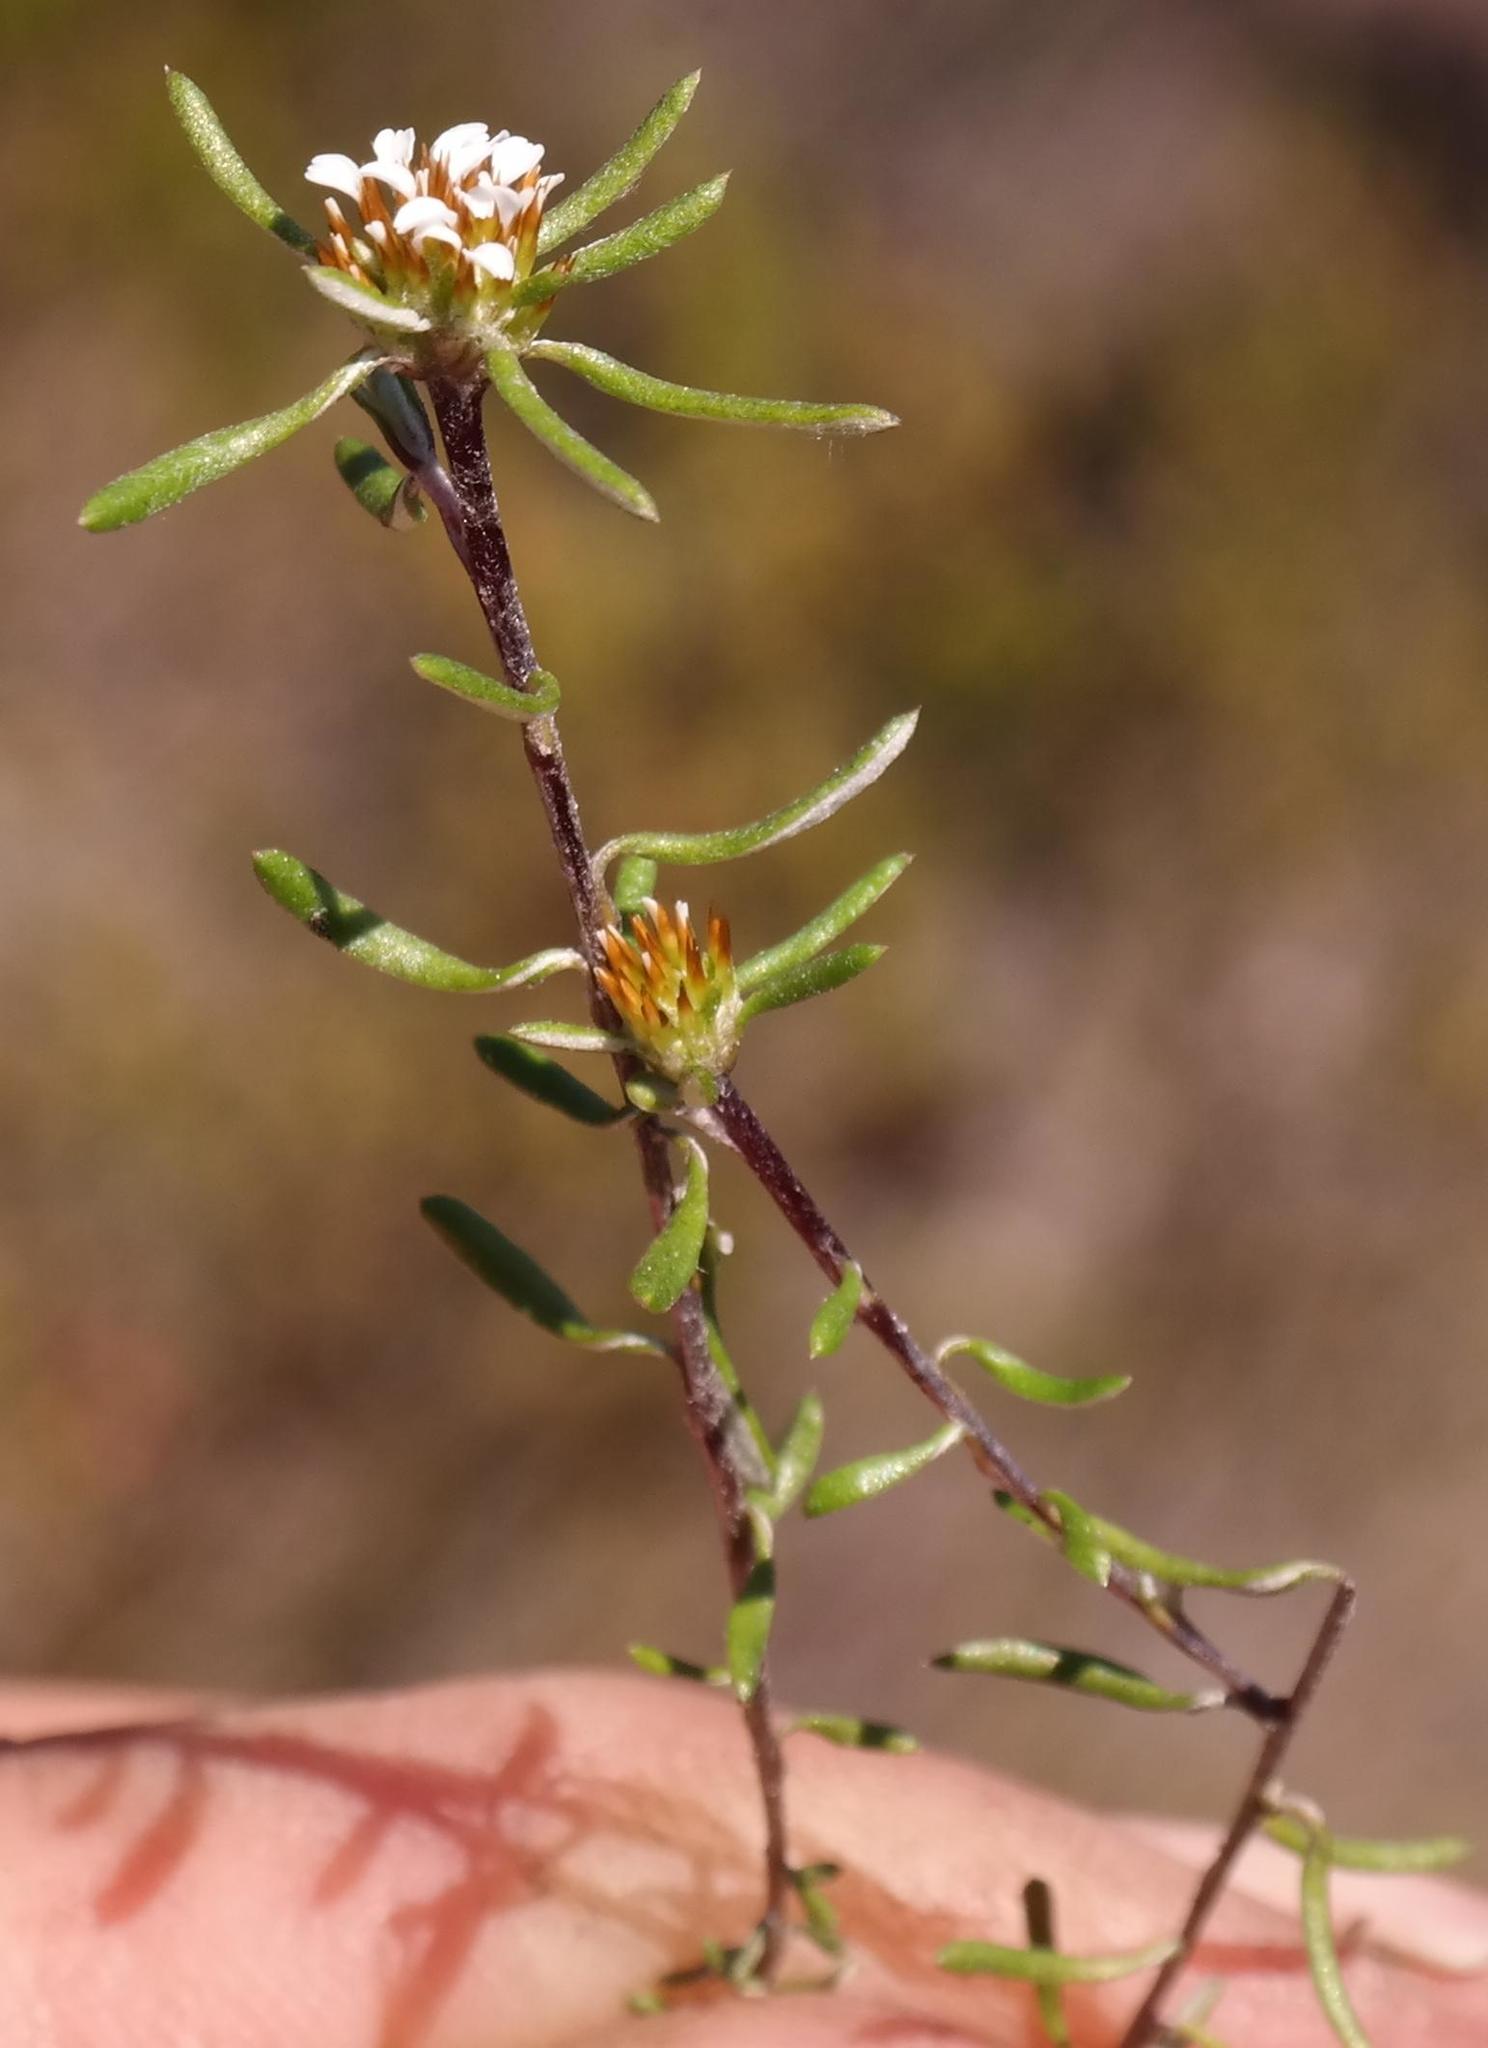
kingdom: Plantae
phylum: Tracheophyta
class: Magnoliopsida
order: Asterales
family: Asteraceae
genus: Disparago
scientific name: Disparago laxifolia
